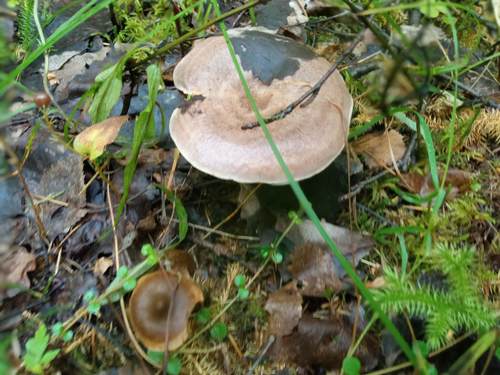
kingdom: Fungi
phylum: Basidiomycota
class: Agaricomycetes
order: Russulales
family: Russulaceae
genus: Lactarius
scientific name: Lactarius
